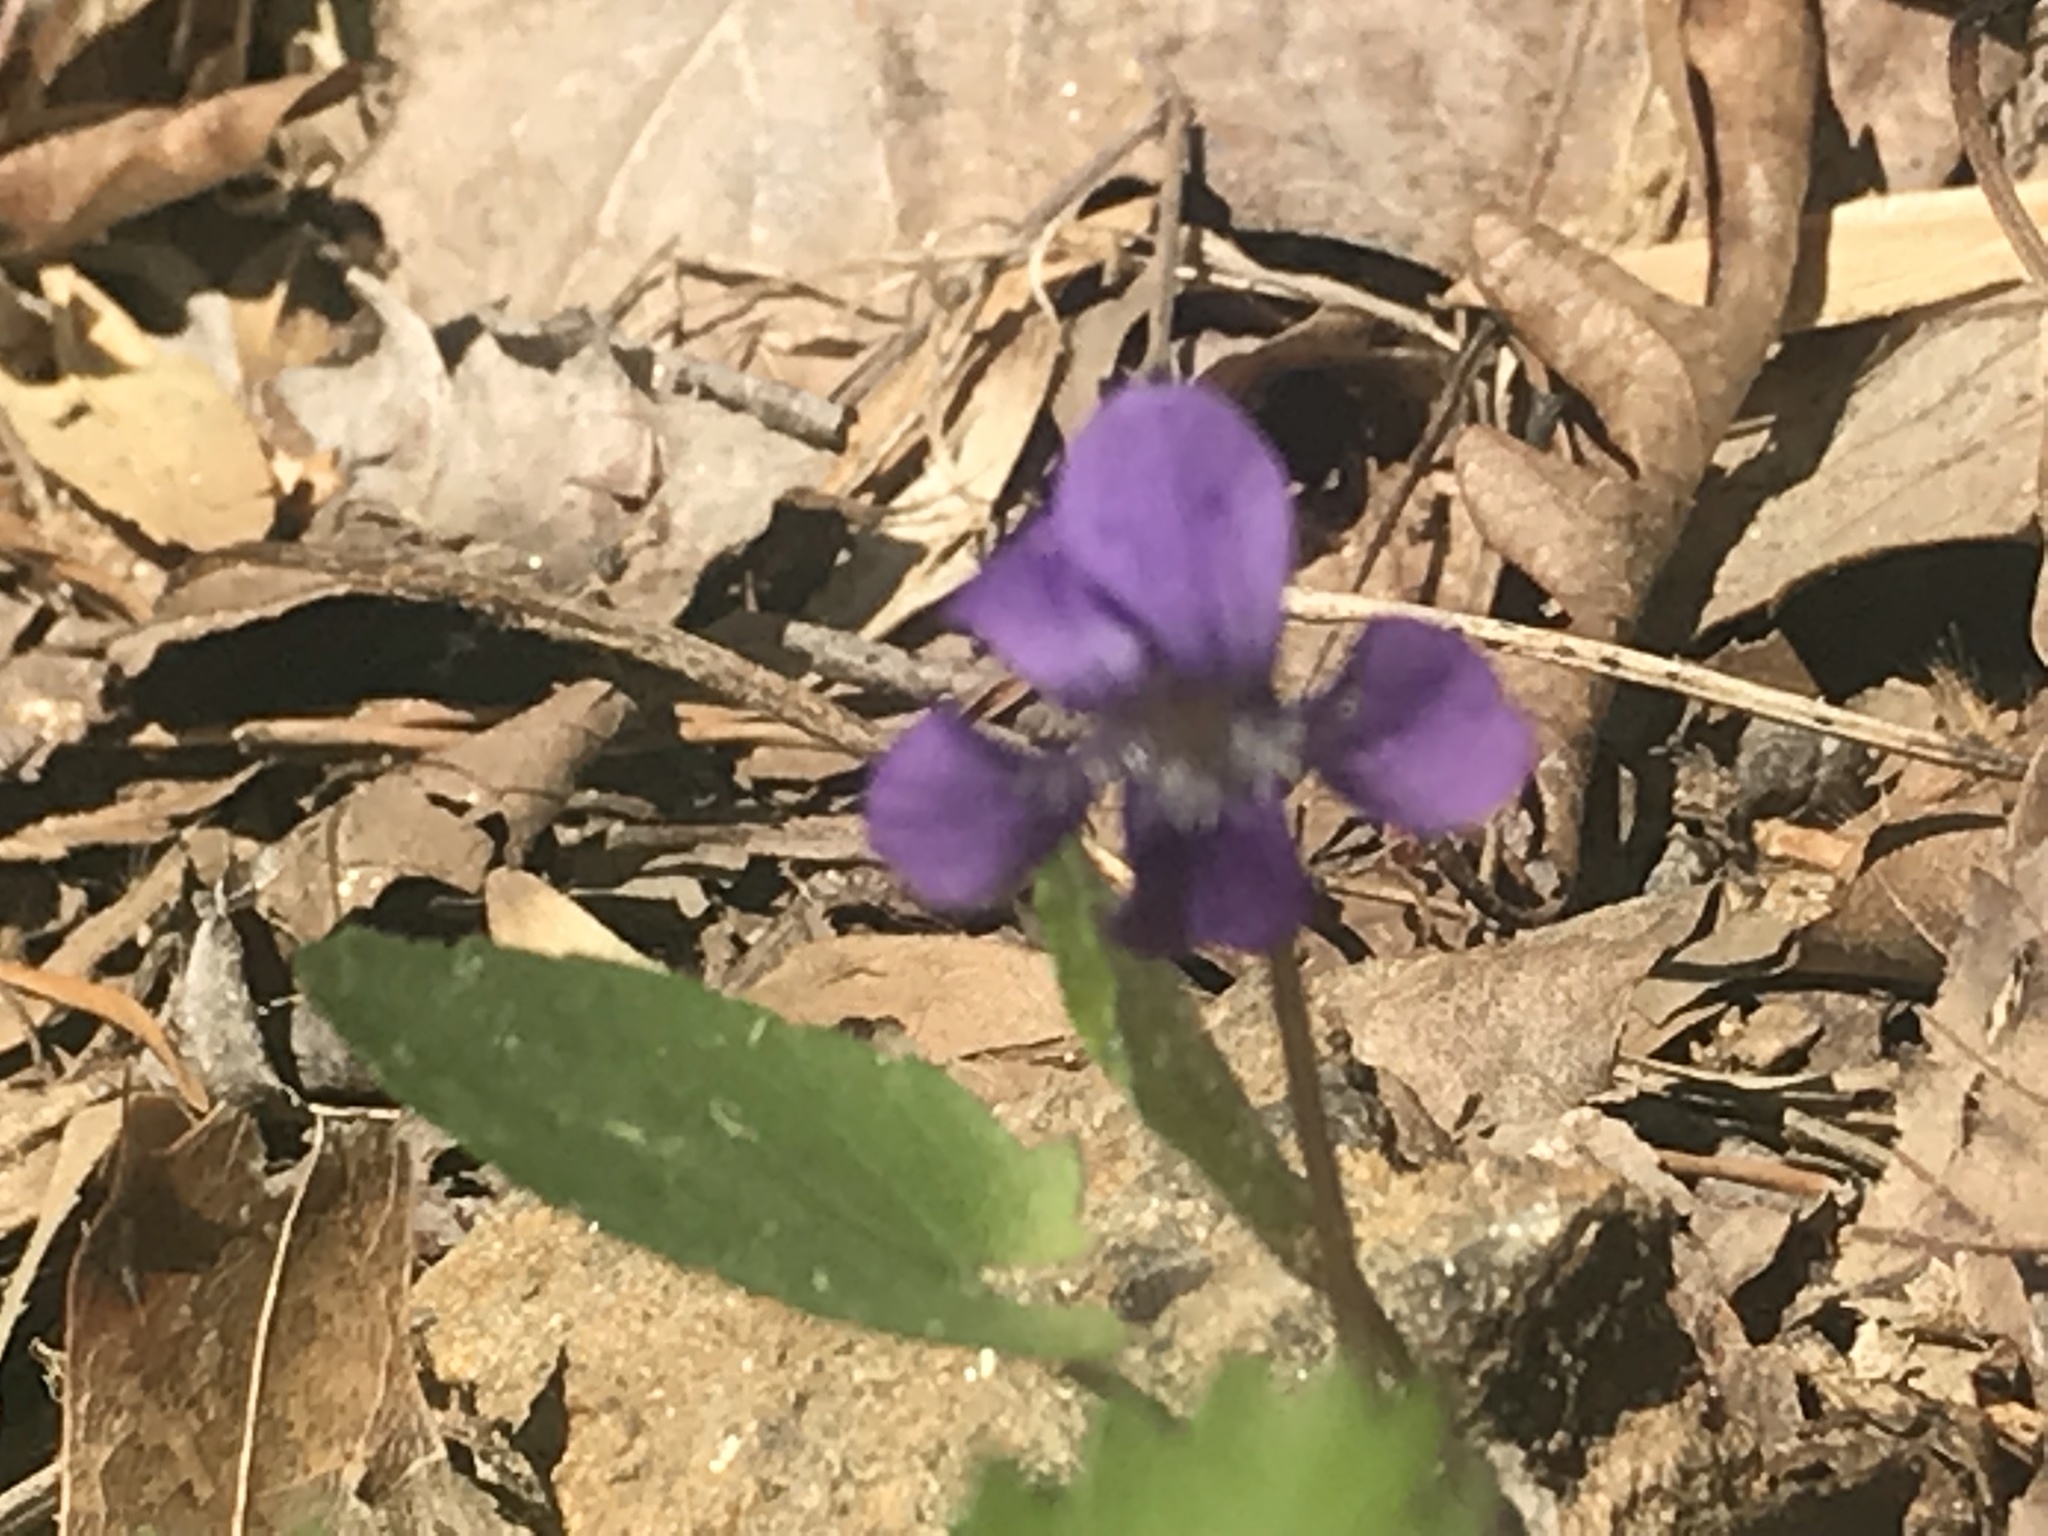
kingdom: Plantae
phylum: Tracheophyta
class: Magnoliopsida
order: Malpighiales
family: Violaceae
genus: Viola
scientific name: Viola sagittata
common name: Arrowhead violet
